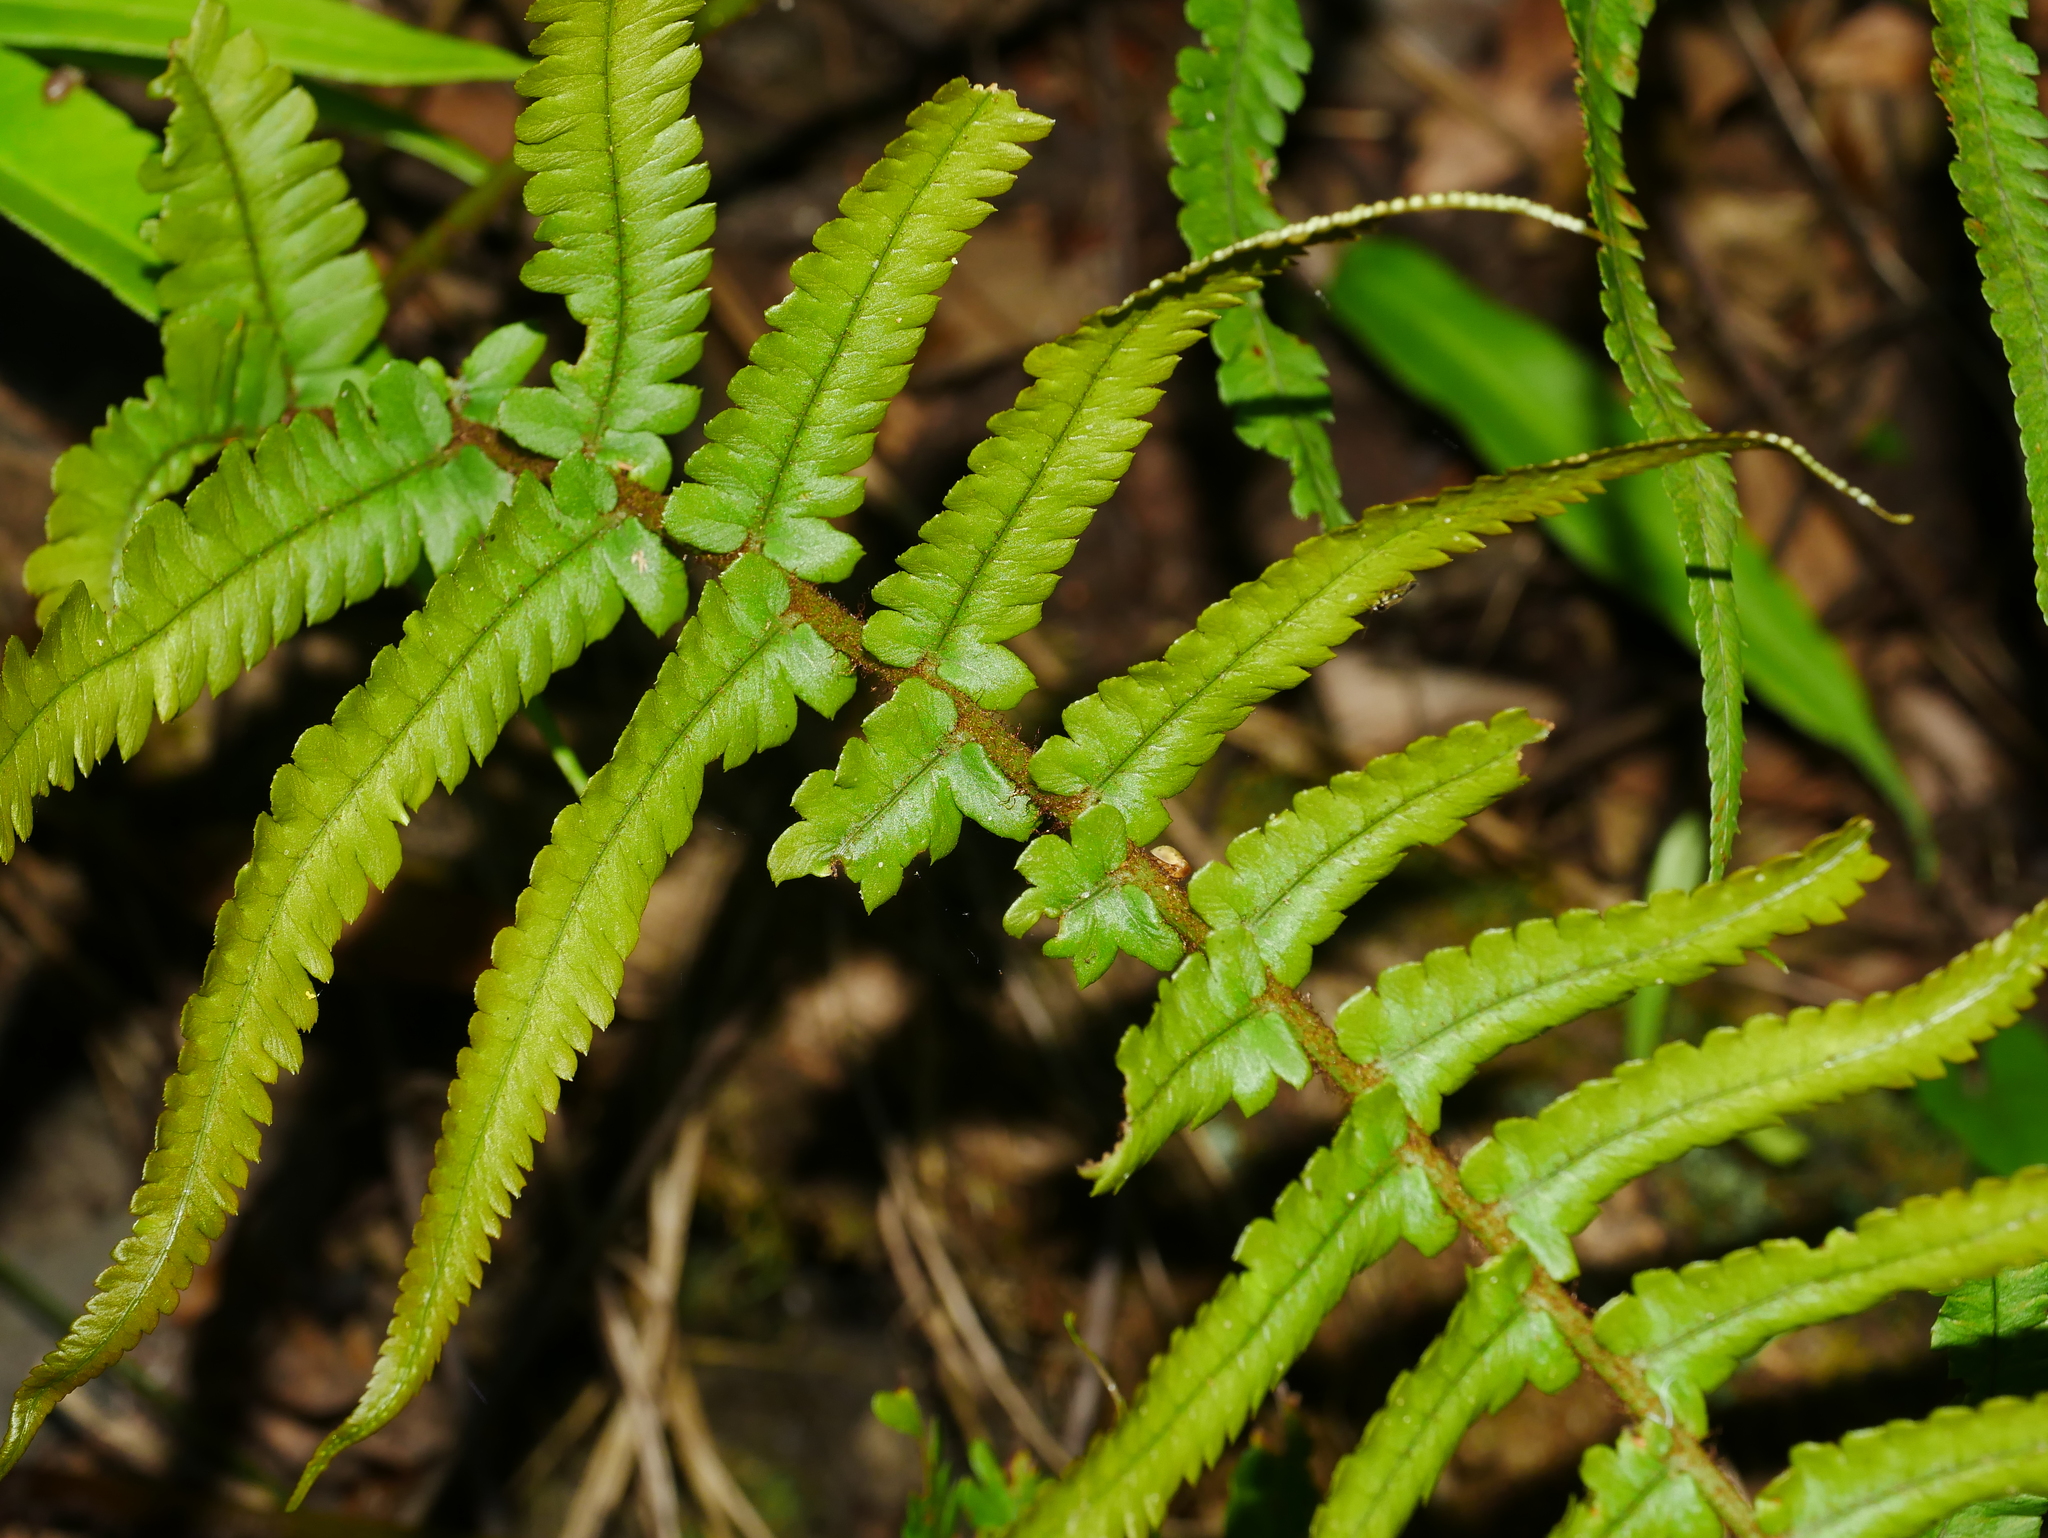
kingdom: Plantae
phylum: Tracheophyta
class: Polypodiopsida
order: Polypodiales
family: Dryopteridaceae
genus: Dryopteris
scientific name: Dryopteris pseudolunanensis
